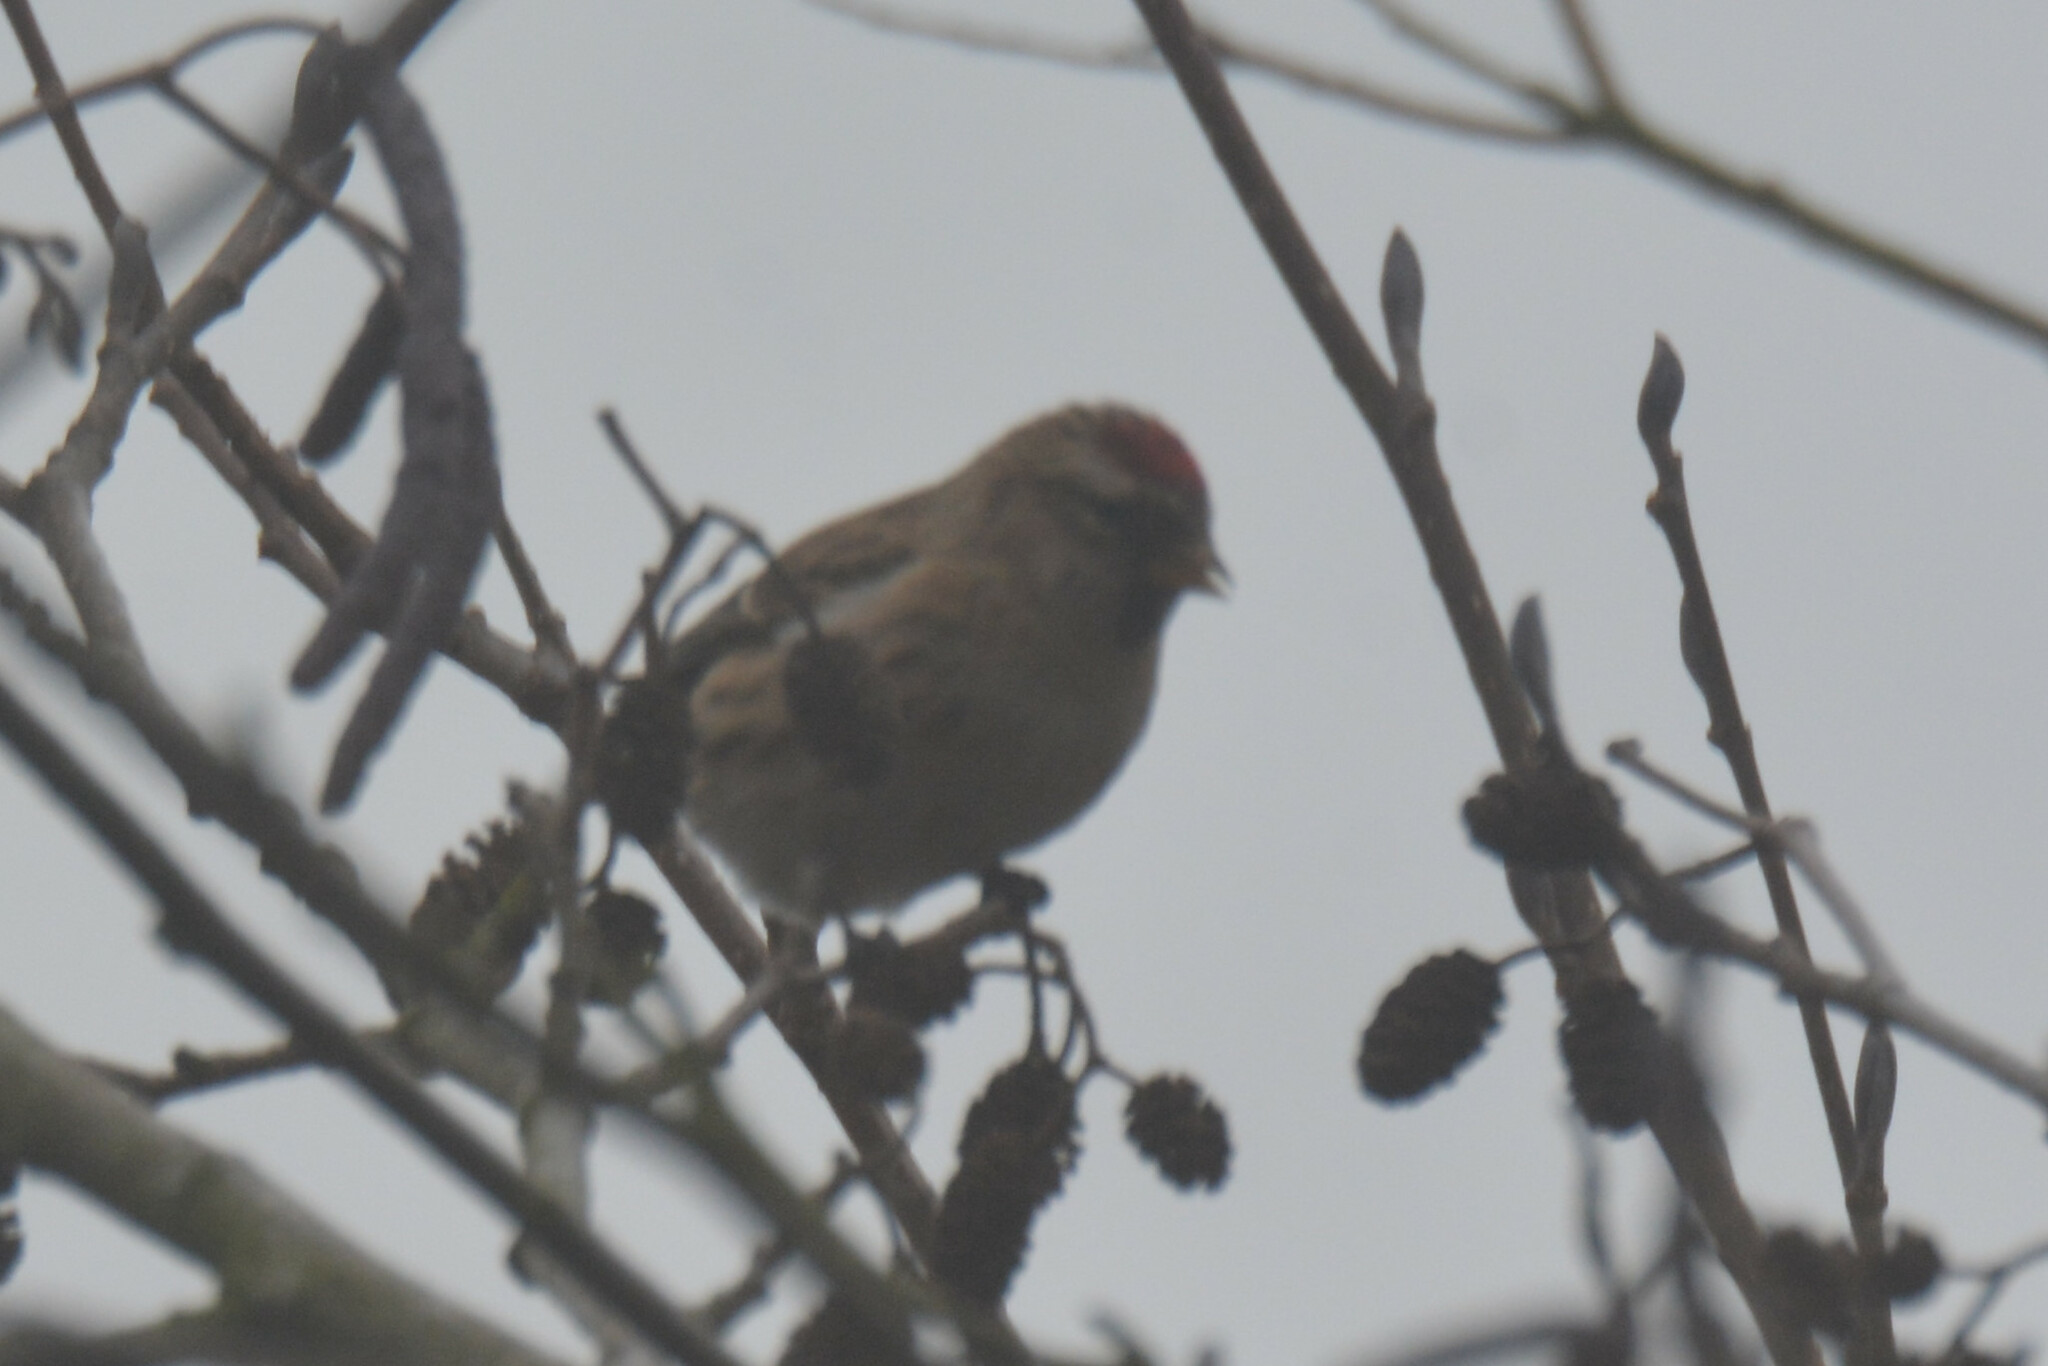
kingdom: Animalia
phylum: Chordata
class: Aves
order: Passeriformes
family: Fringillidae
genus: Acanthis
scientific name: Acanthis flammea
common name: Common redpoll
